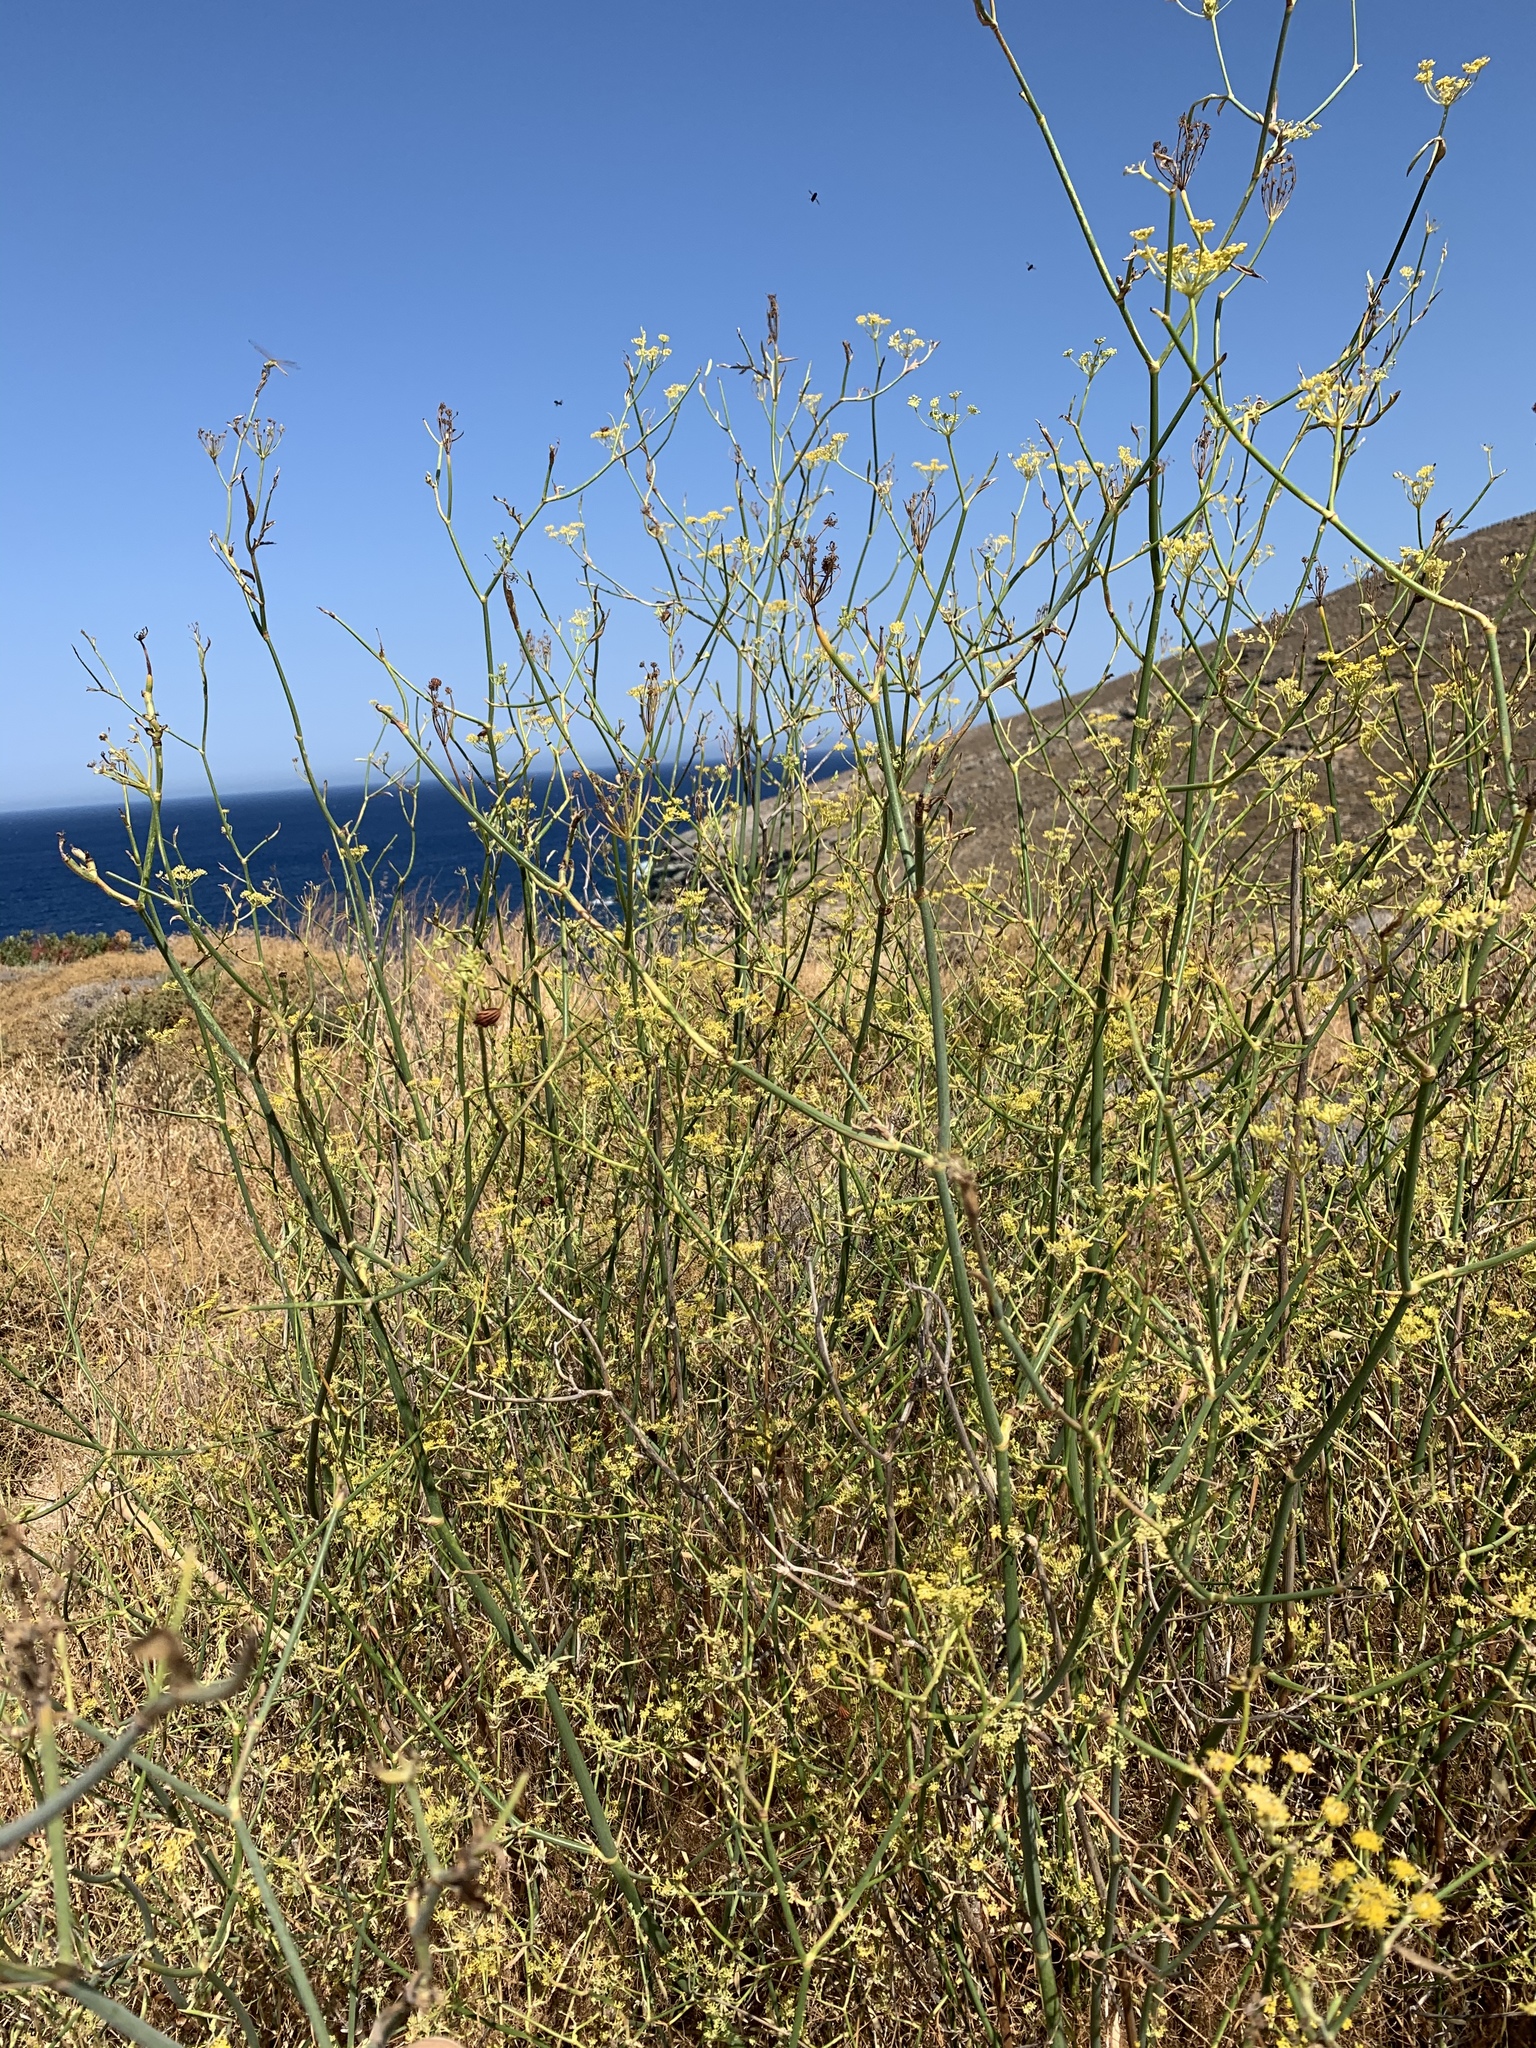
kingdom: Plantae
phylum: Tracheophyta
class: Magnoliopsida
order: Apiales
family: Apiaceae
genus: Foeniculum
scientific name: Foeniculum vulgare
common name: Fennel
